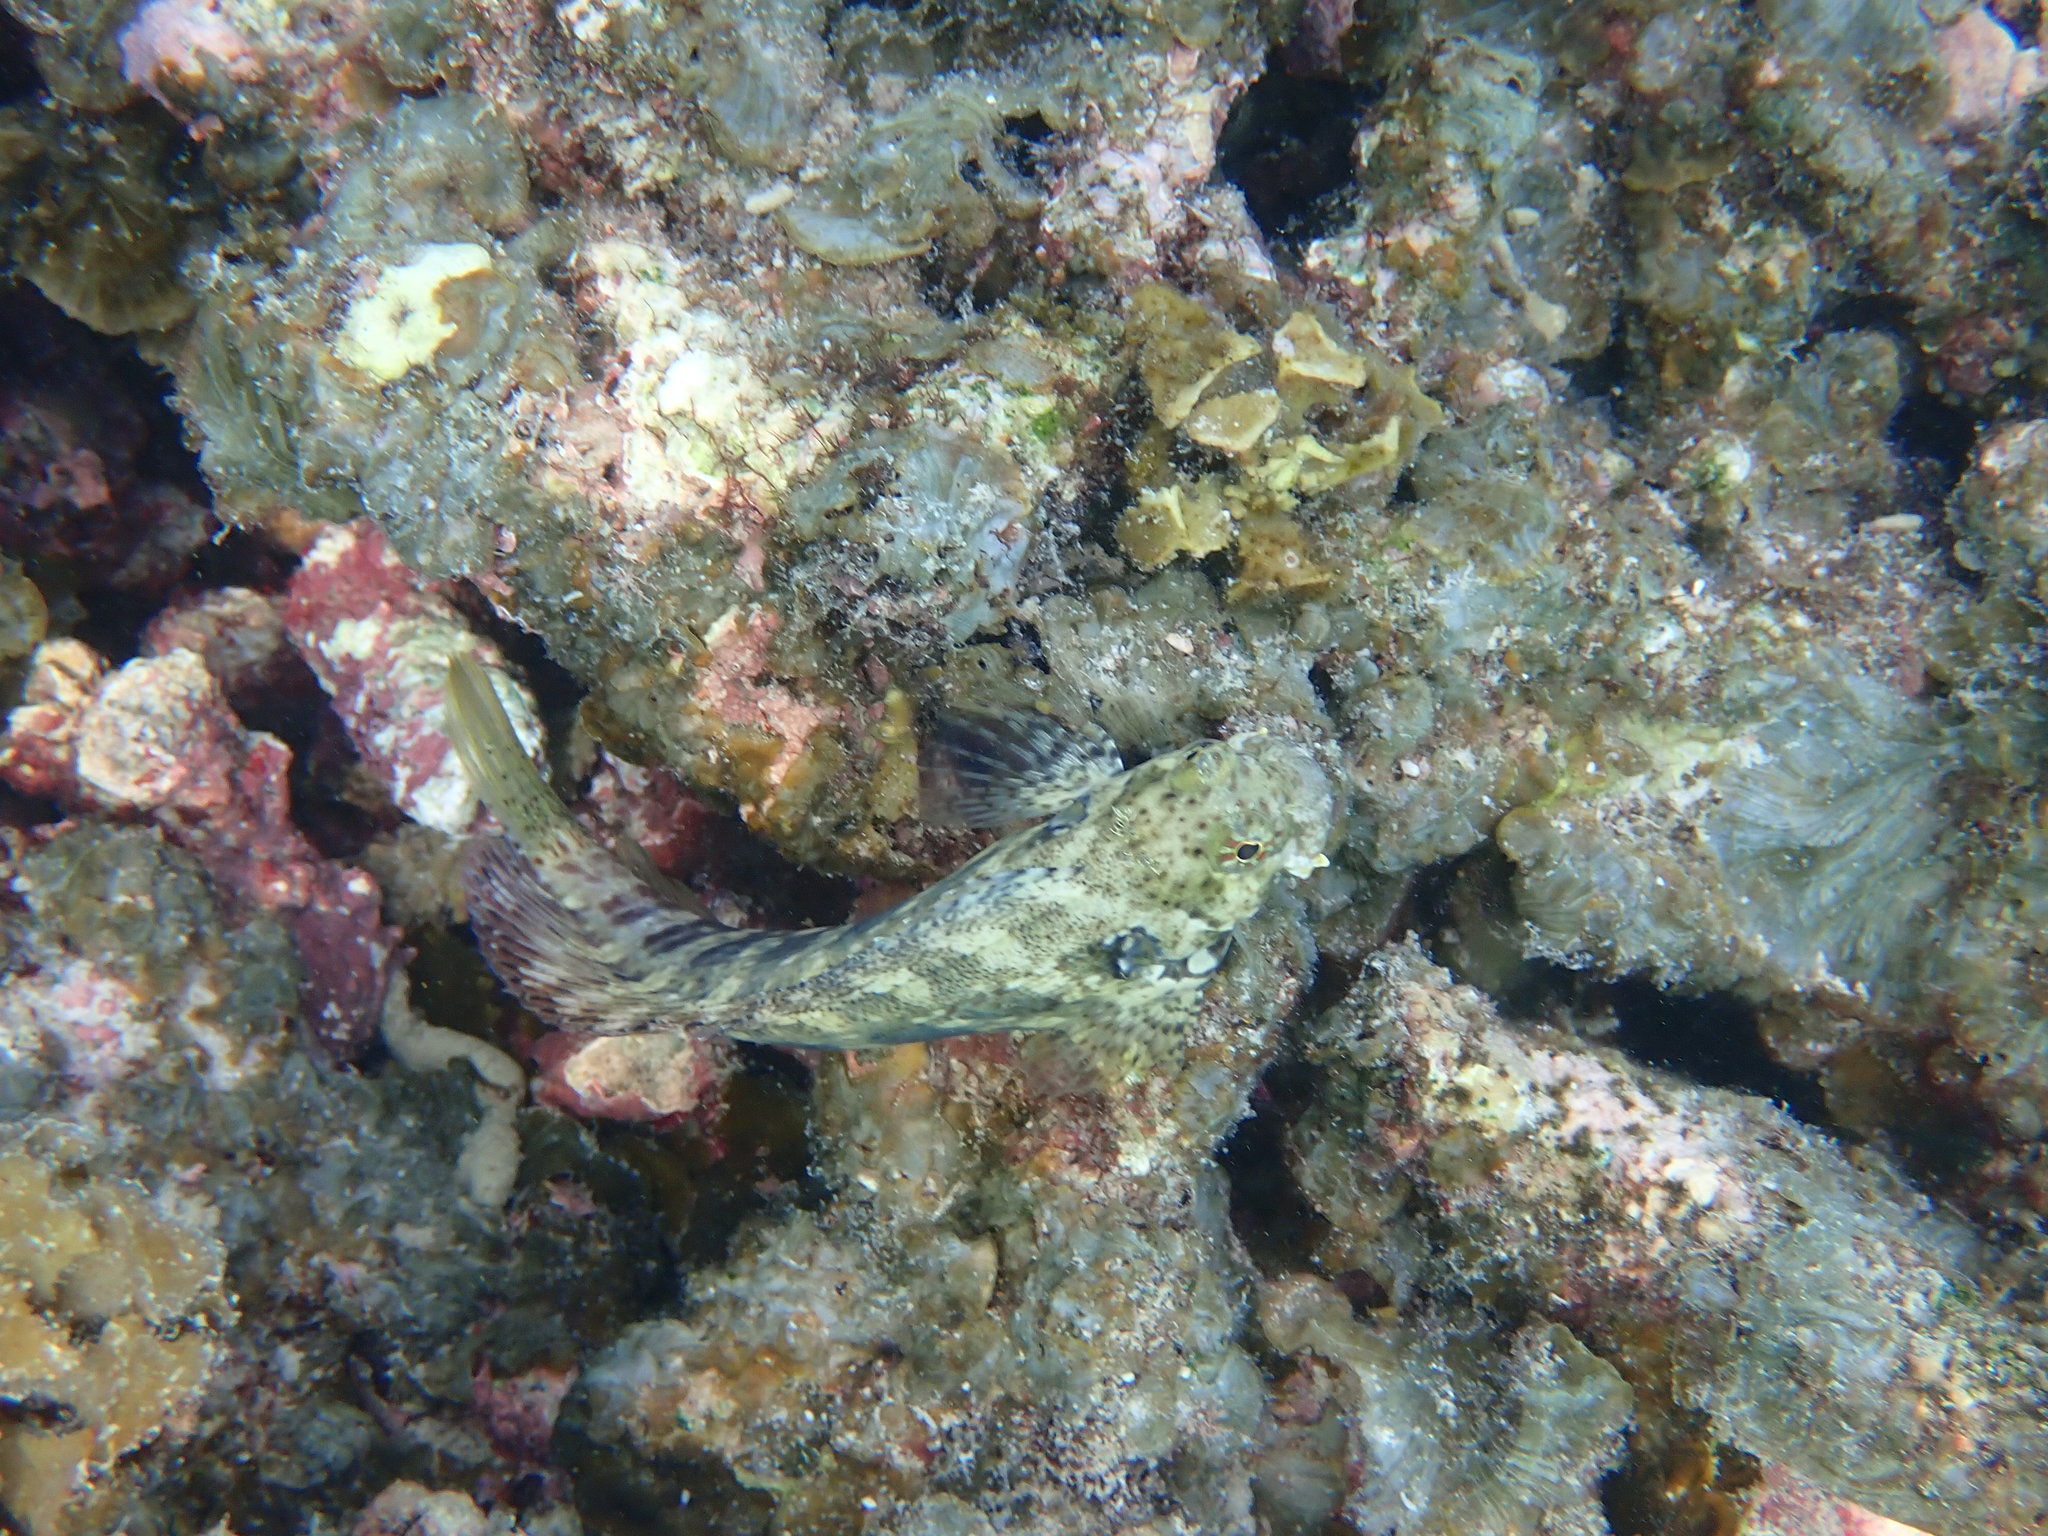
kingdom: Animalia
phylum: Chordata
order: Perciformes
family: Blenniidae
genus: Salarias
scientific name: Salarias fasciatus
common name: Jewelled blenny
